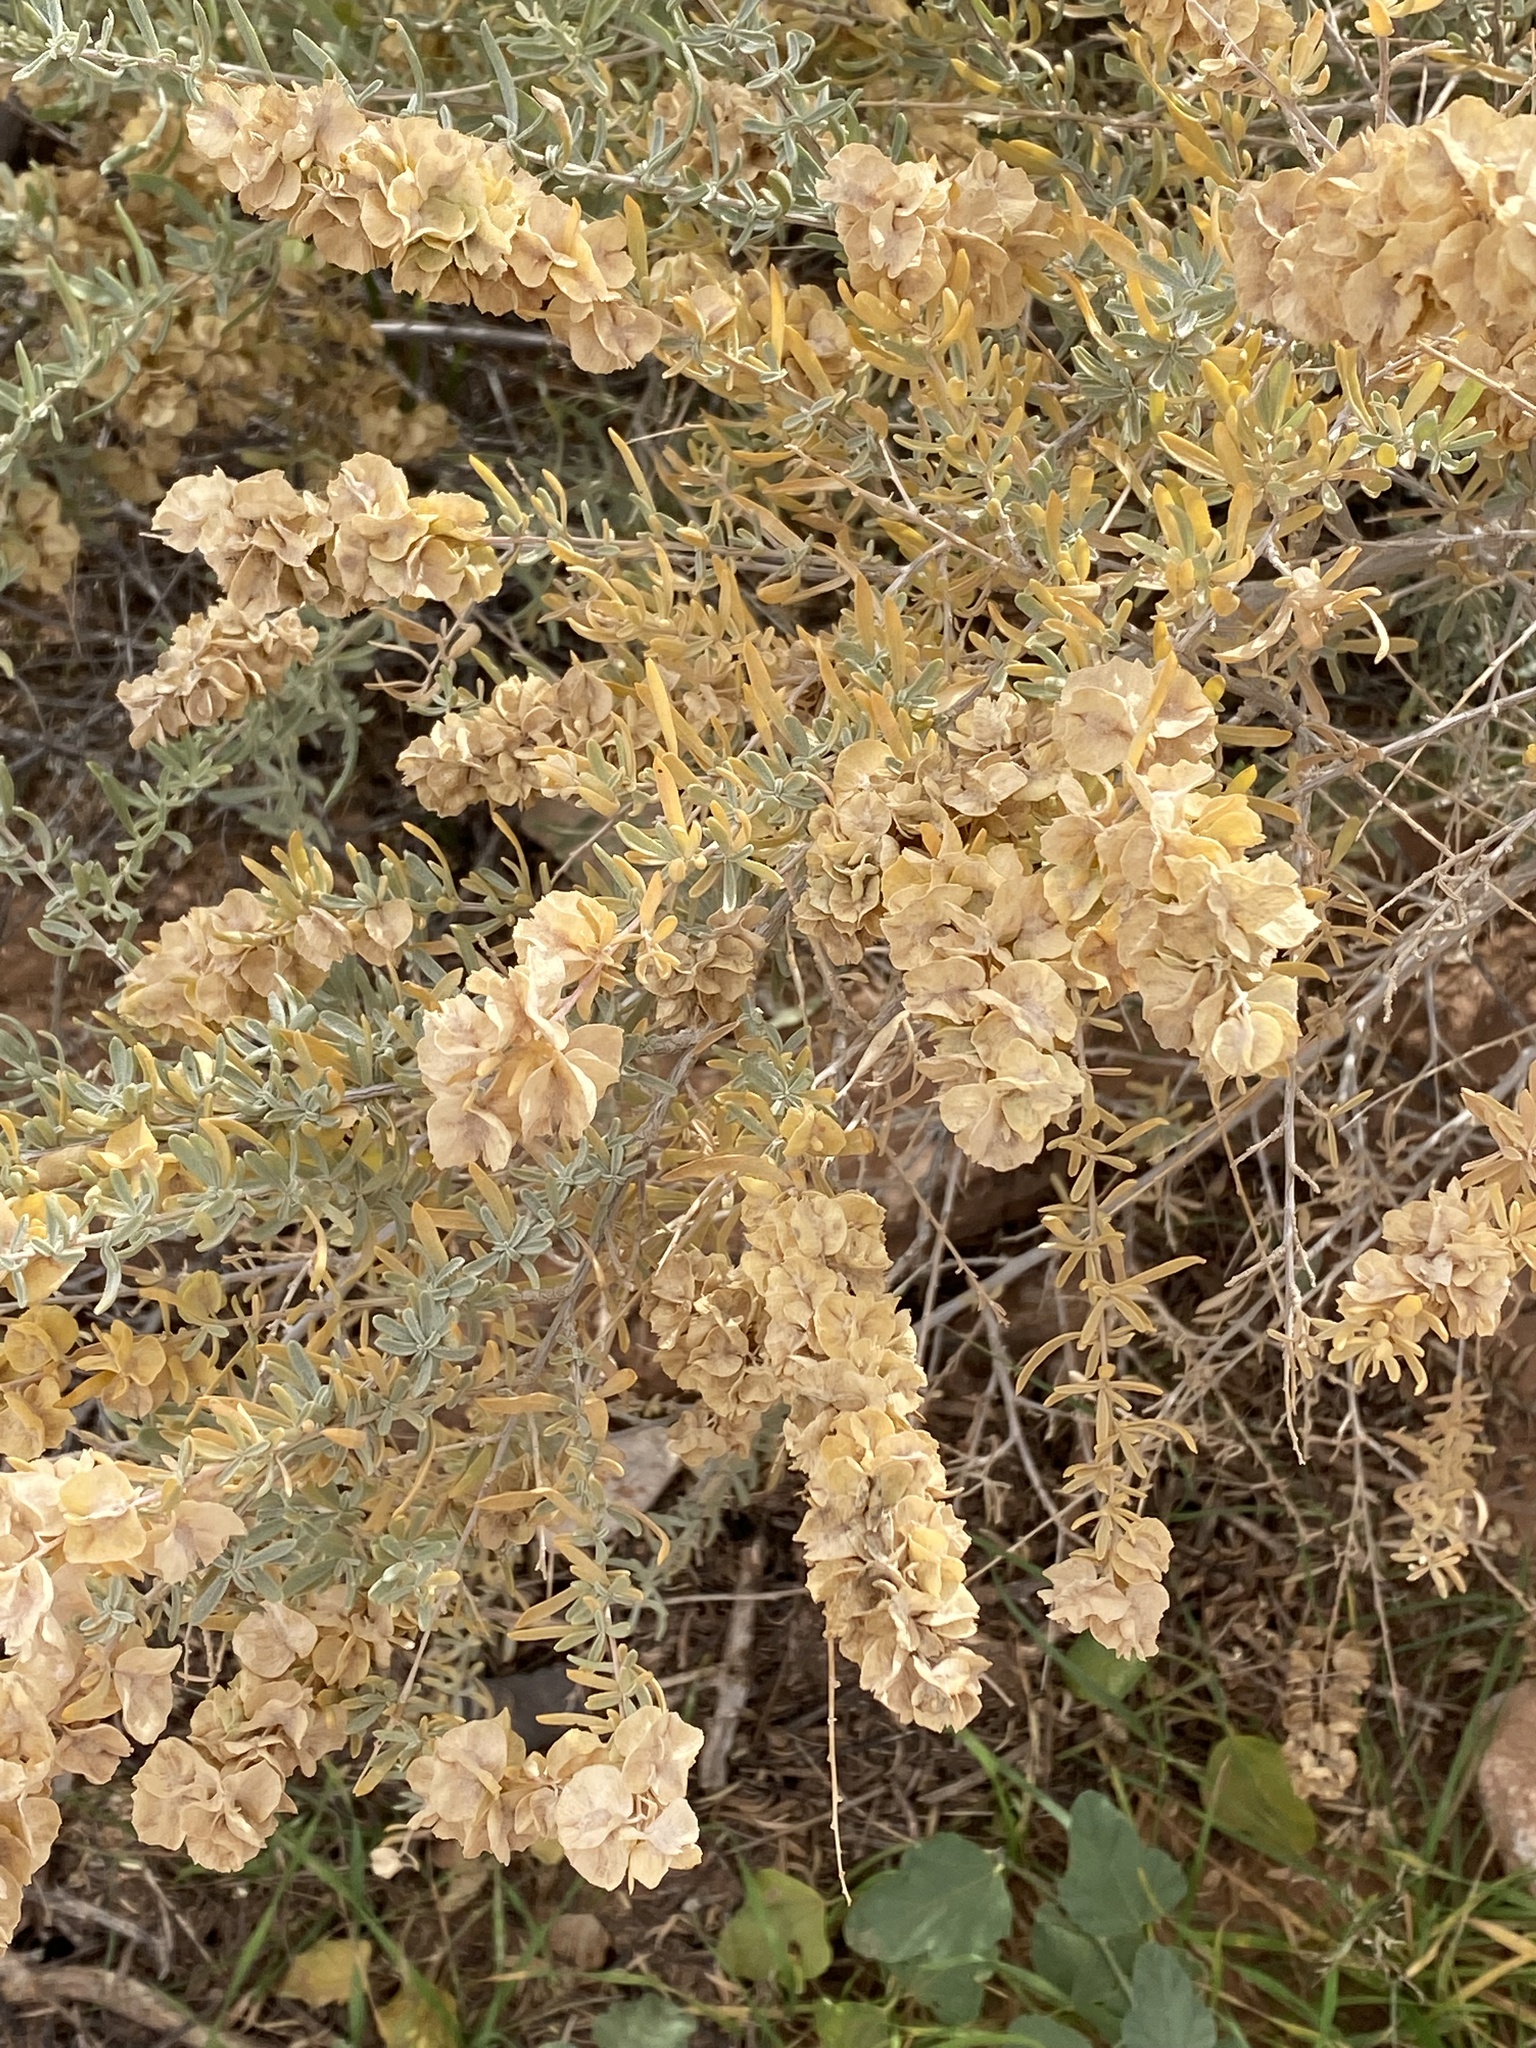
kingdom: Plantae
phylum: Tracheophyta
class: Magnoliopsida
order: Caryophyllales
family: Amaranthaceae
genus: Atriplex
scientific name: Atriplex canescens
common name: Four-wing saltbush
